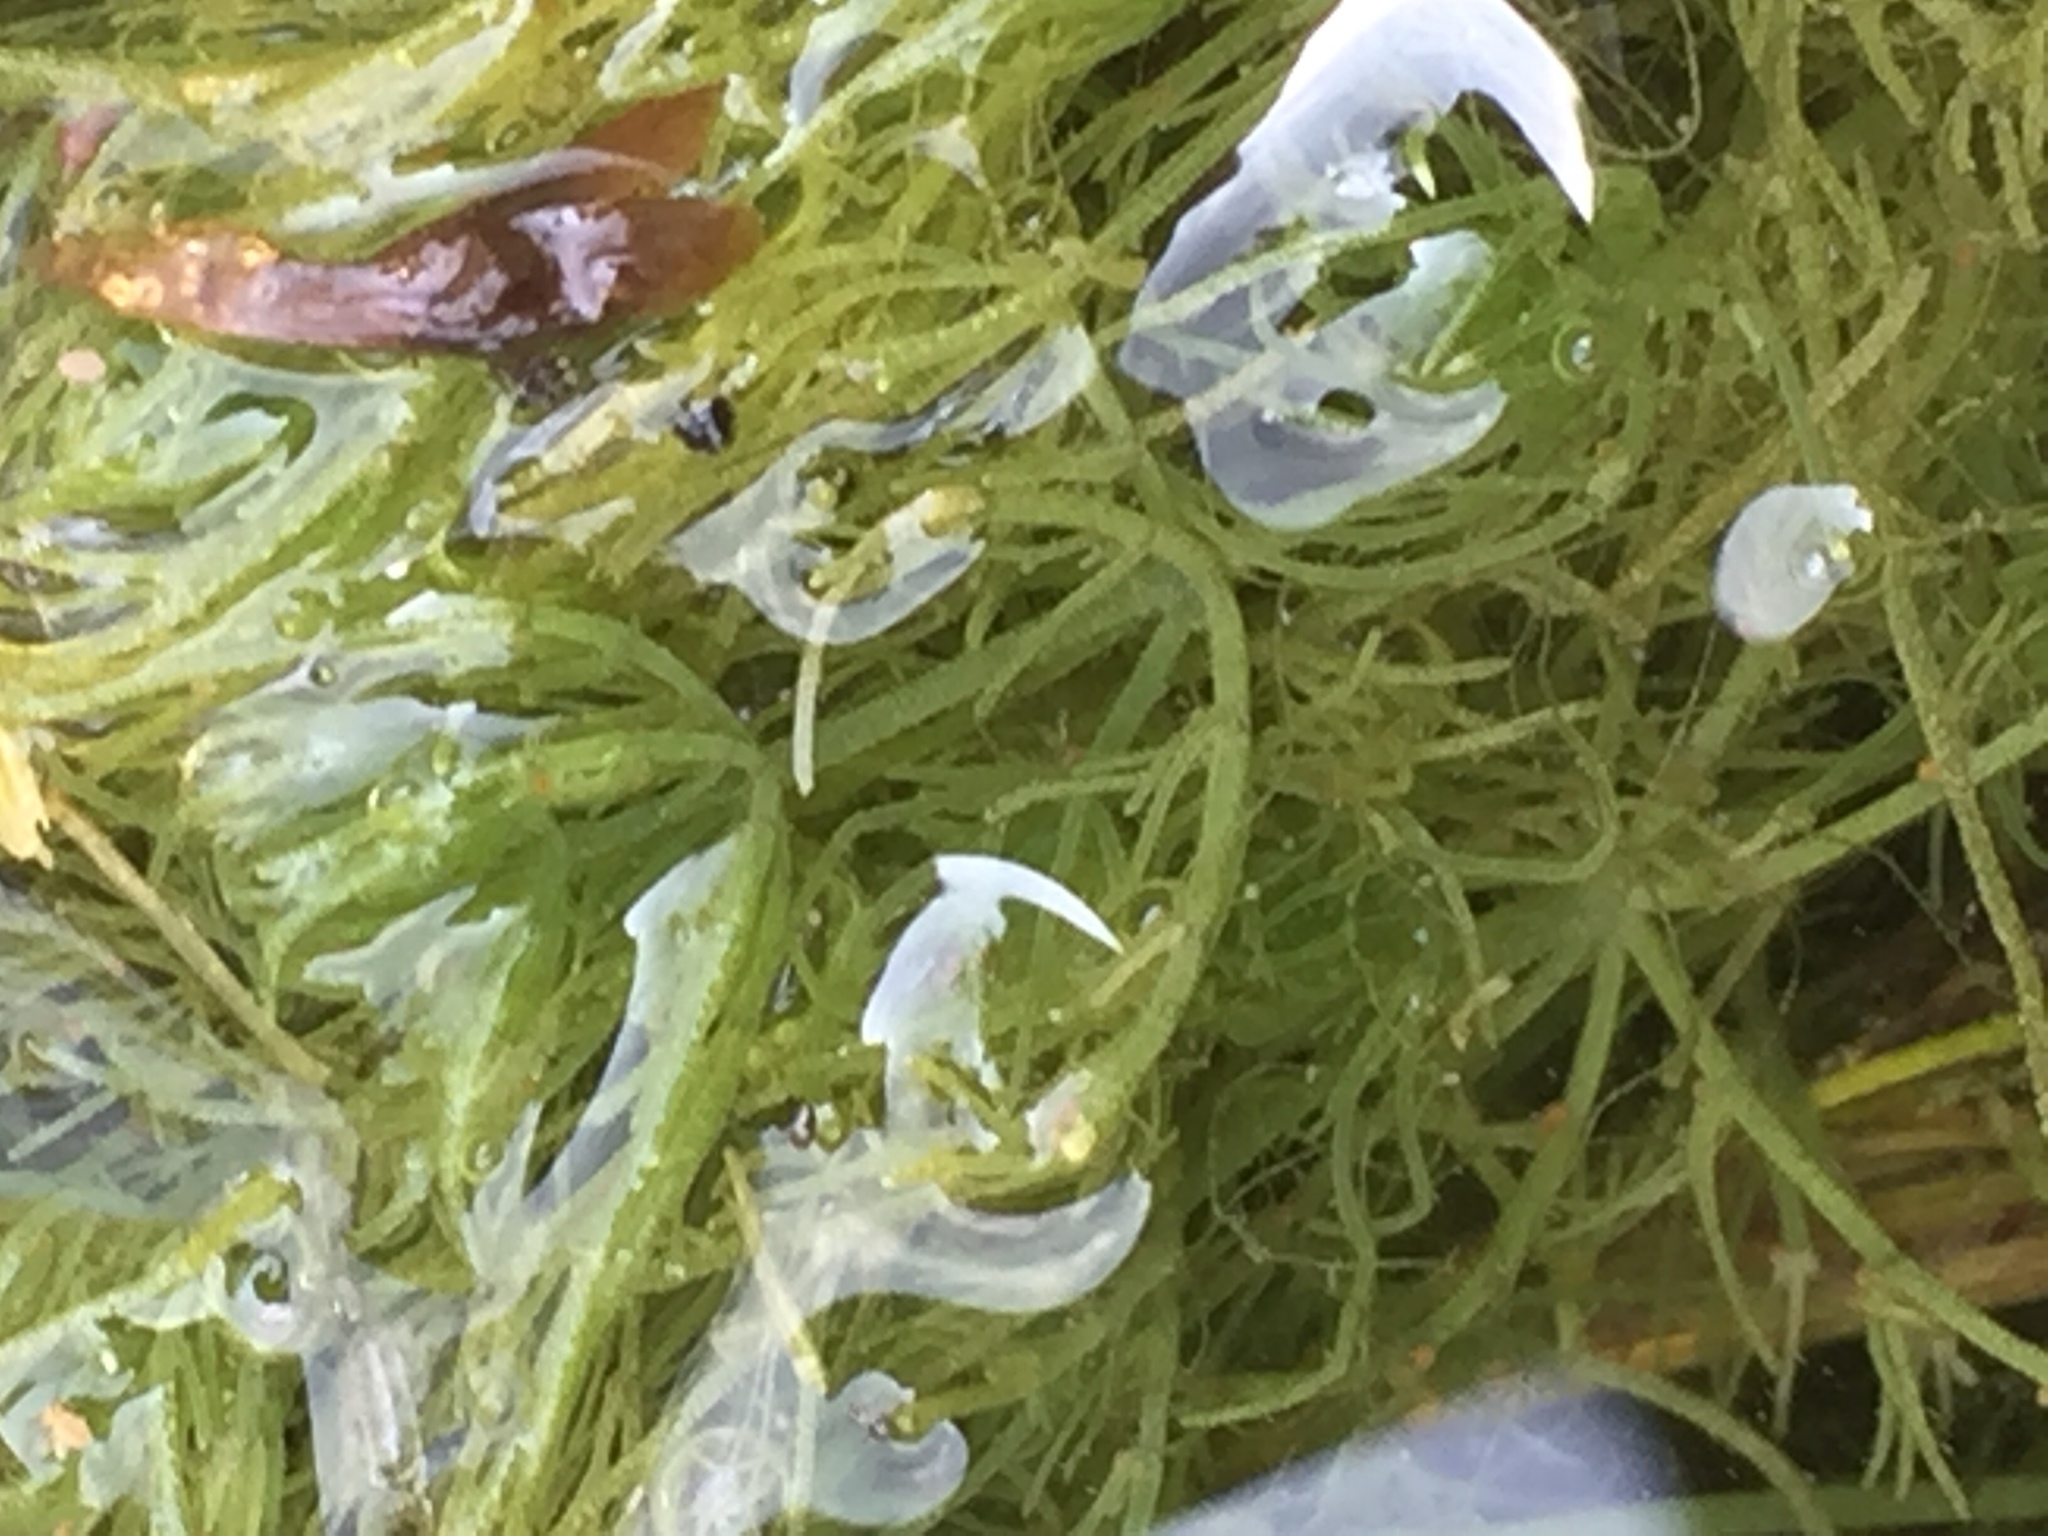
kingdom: Plantae
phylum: Charophyta
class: Charophyceae
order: Charales
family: Characeae
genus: Chara
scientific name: Chara vulgaris
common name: Common stonewort
